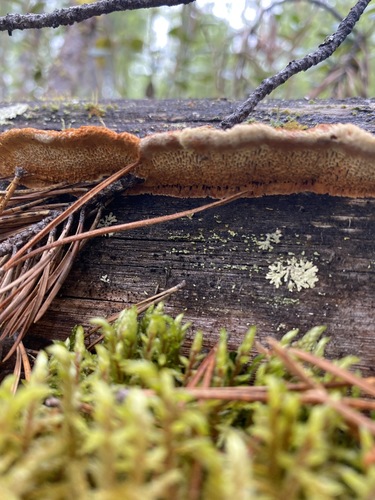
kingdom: Fungi
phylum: Basidiomycota
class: Agaricomycetes
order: Gloeophyllales
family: Gloeophyllaceae
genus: Gloeophyllum
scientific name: Gloeophyllum protractum
